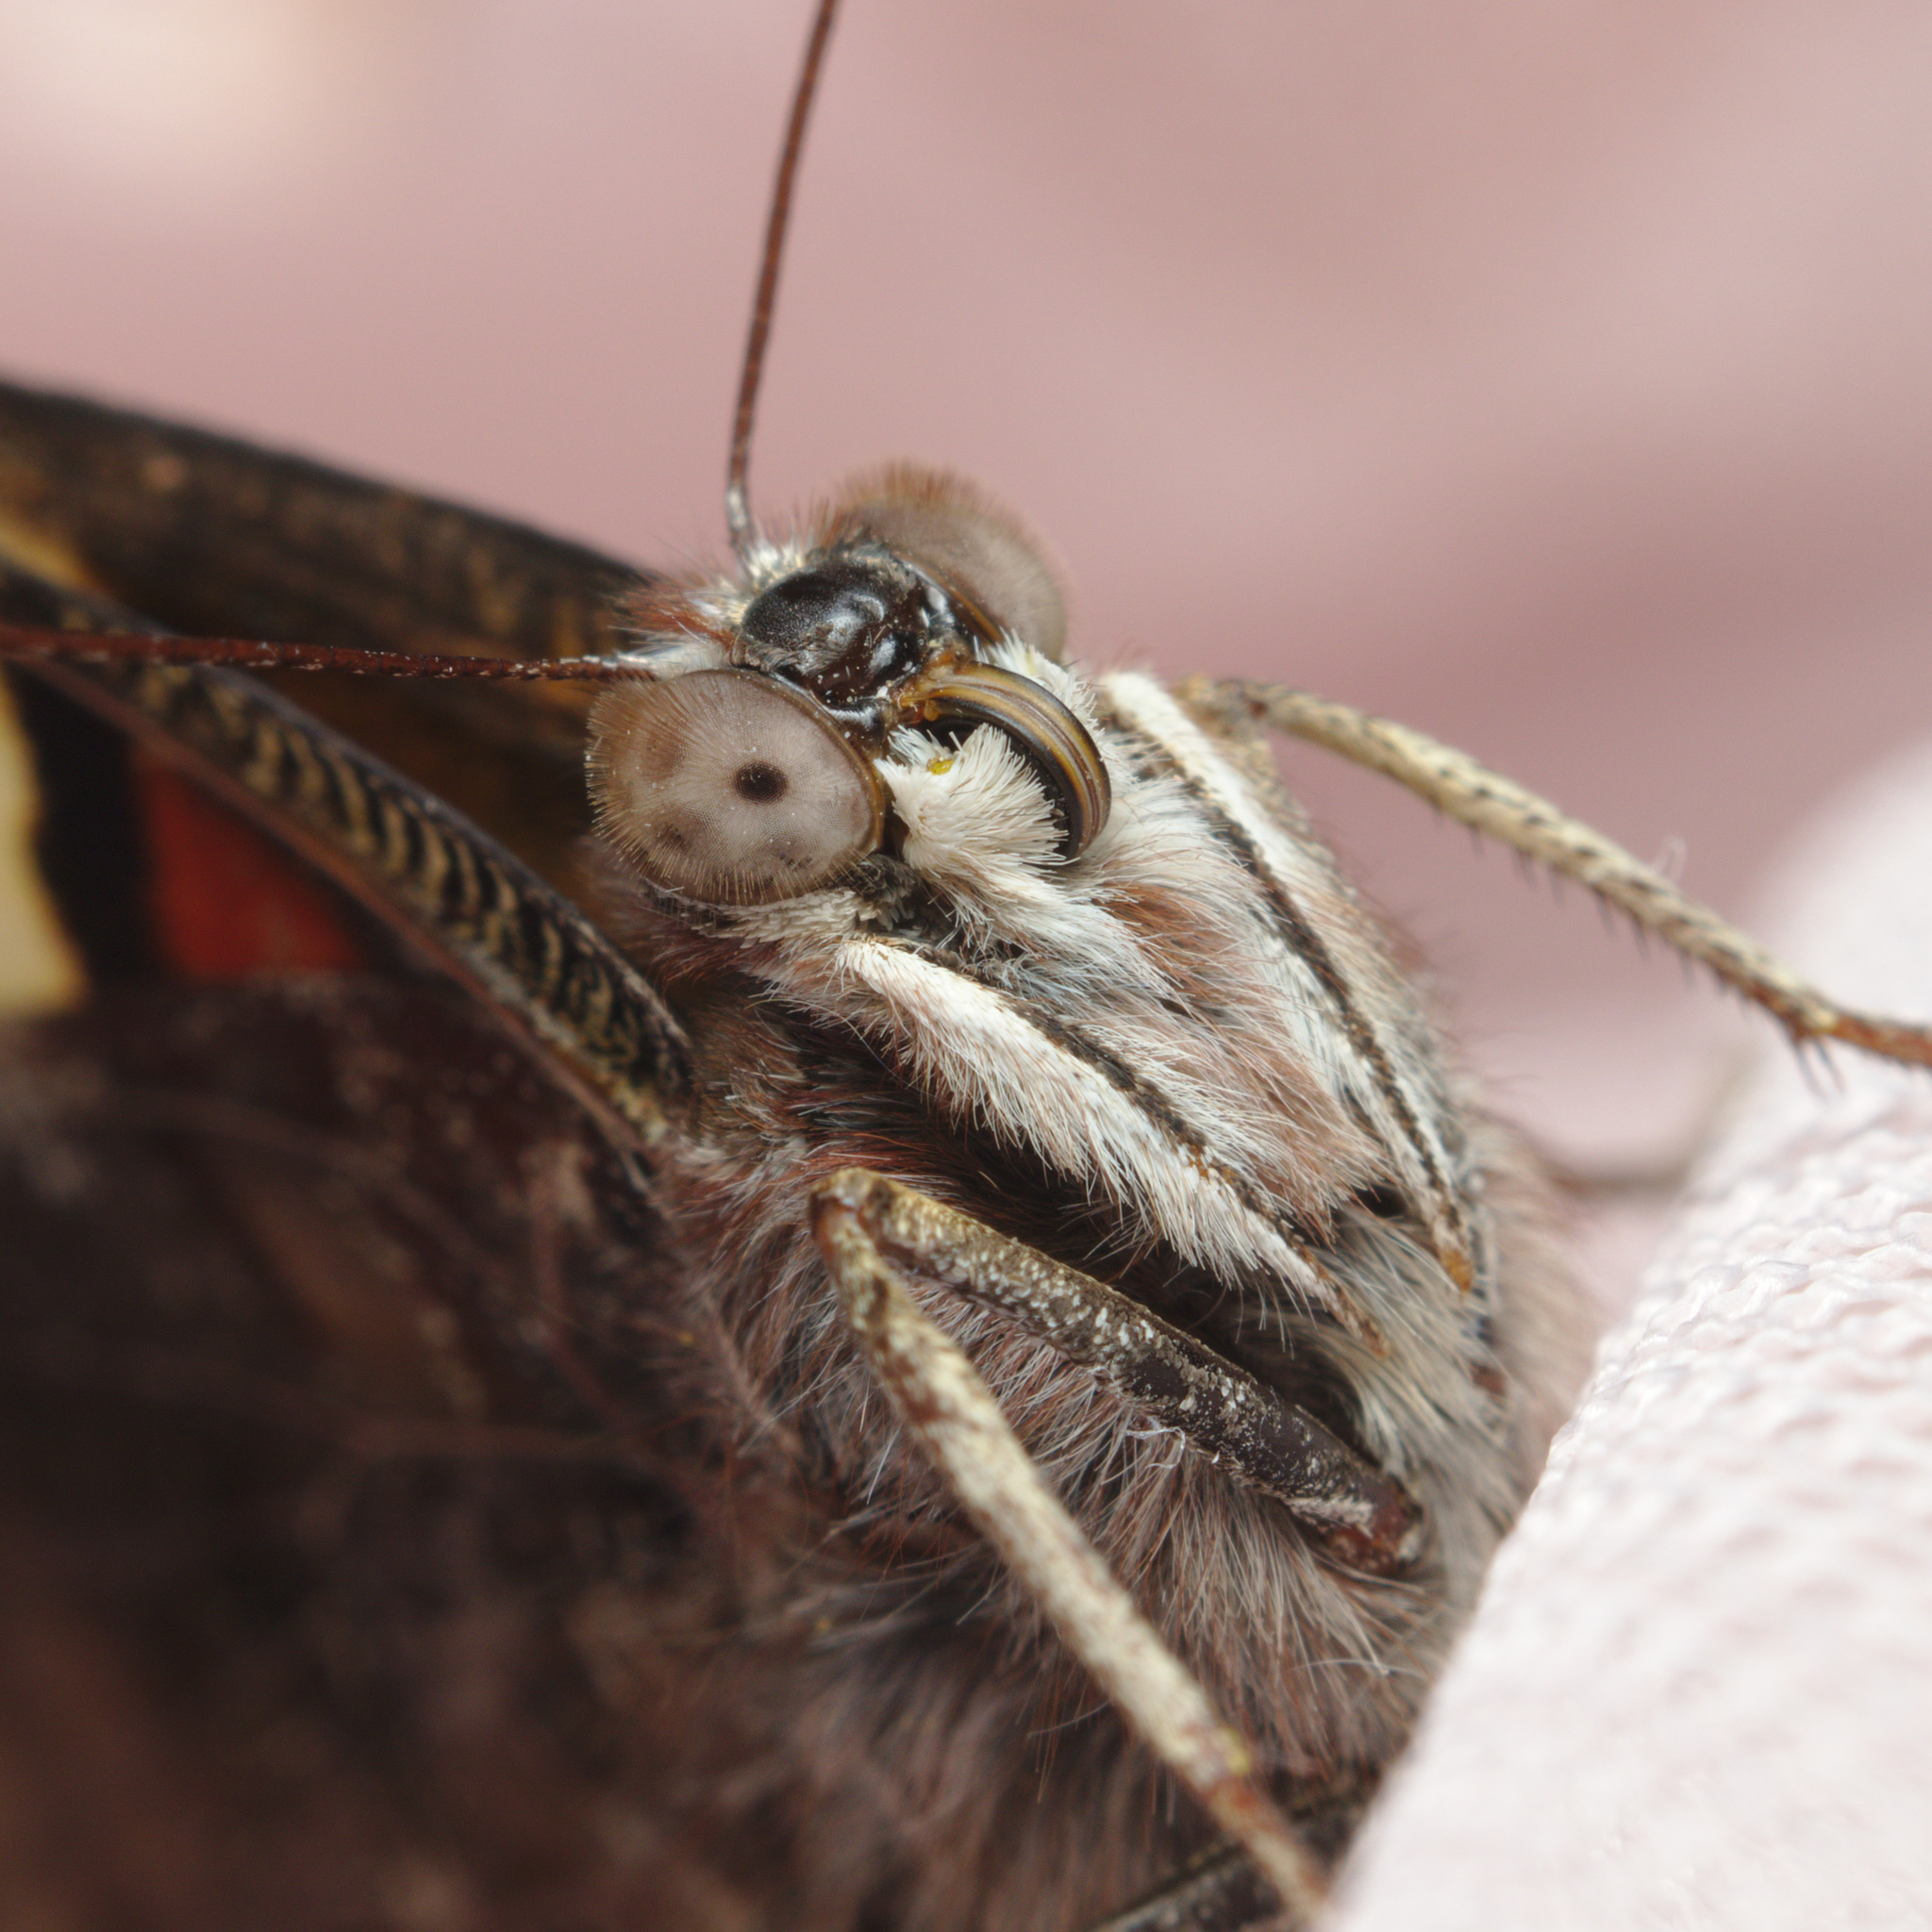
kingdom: Animalia
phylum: Arthropoda
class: Insecta
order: Lepidoptera
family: Nymphalidae
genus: Vanessa
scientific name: Vanessa itea
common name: Yellow admiral
